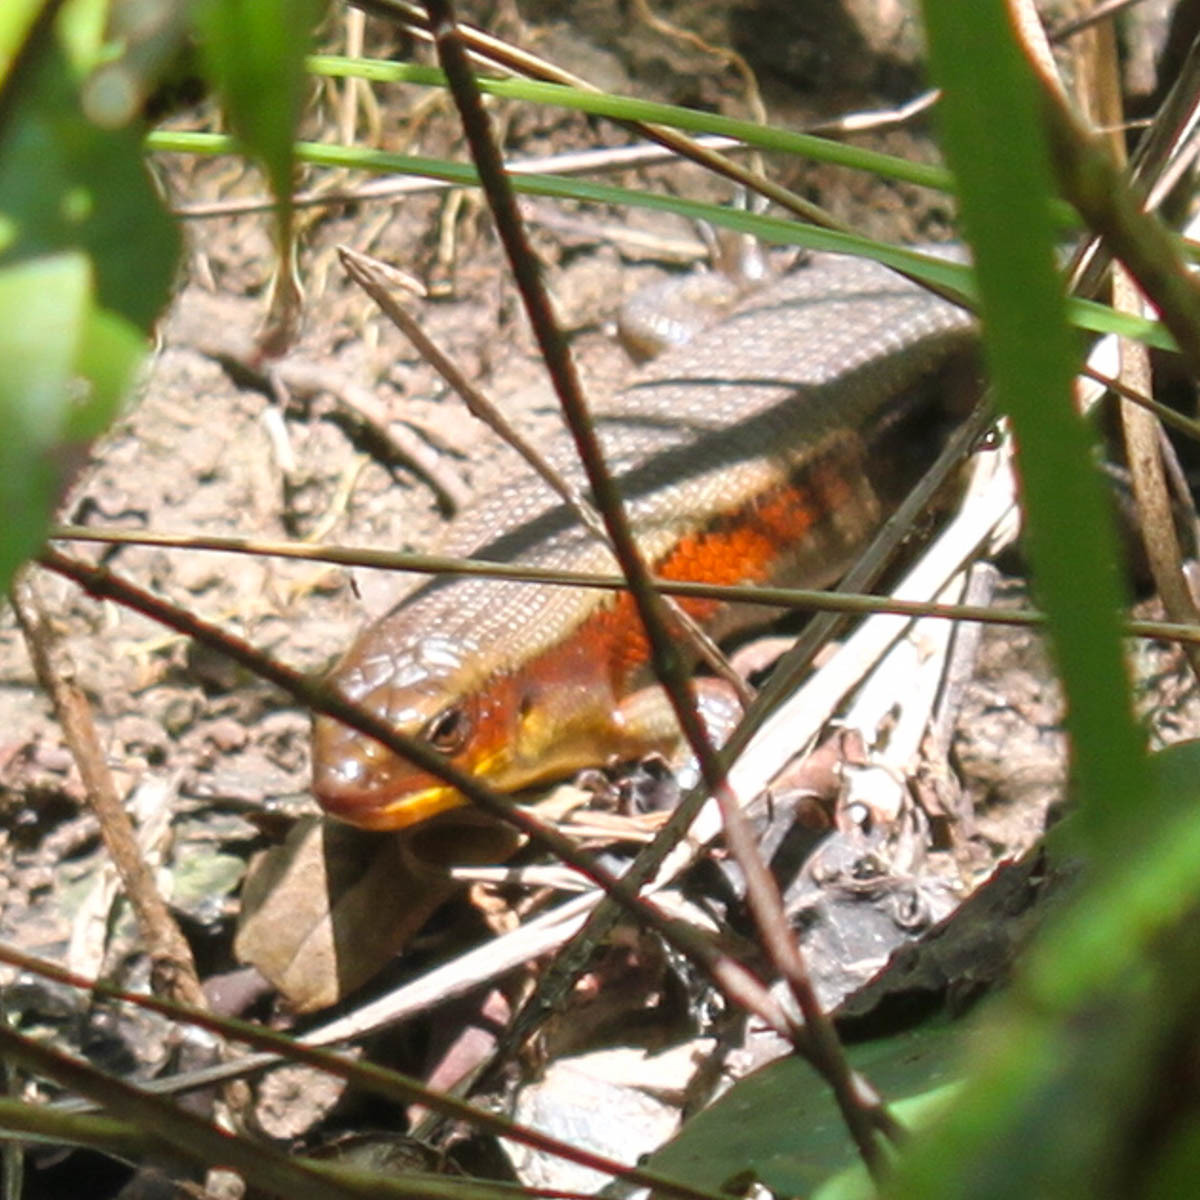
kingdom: Animalia
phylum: Chordata
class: Squamata
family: Scincidae
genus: Eutropis
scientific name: Eutropis multifasciata
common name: Common mabuya
